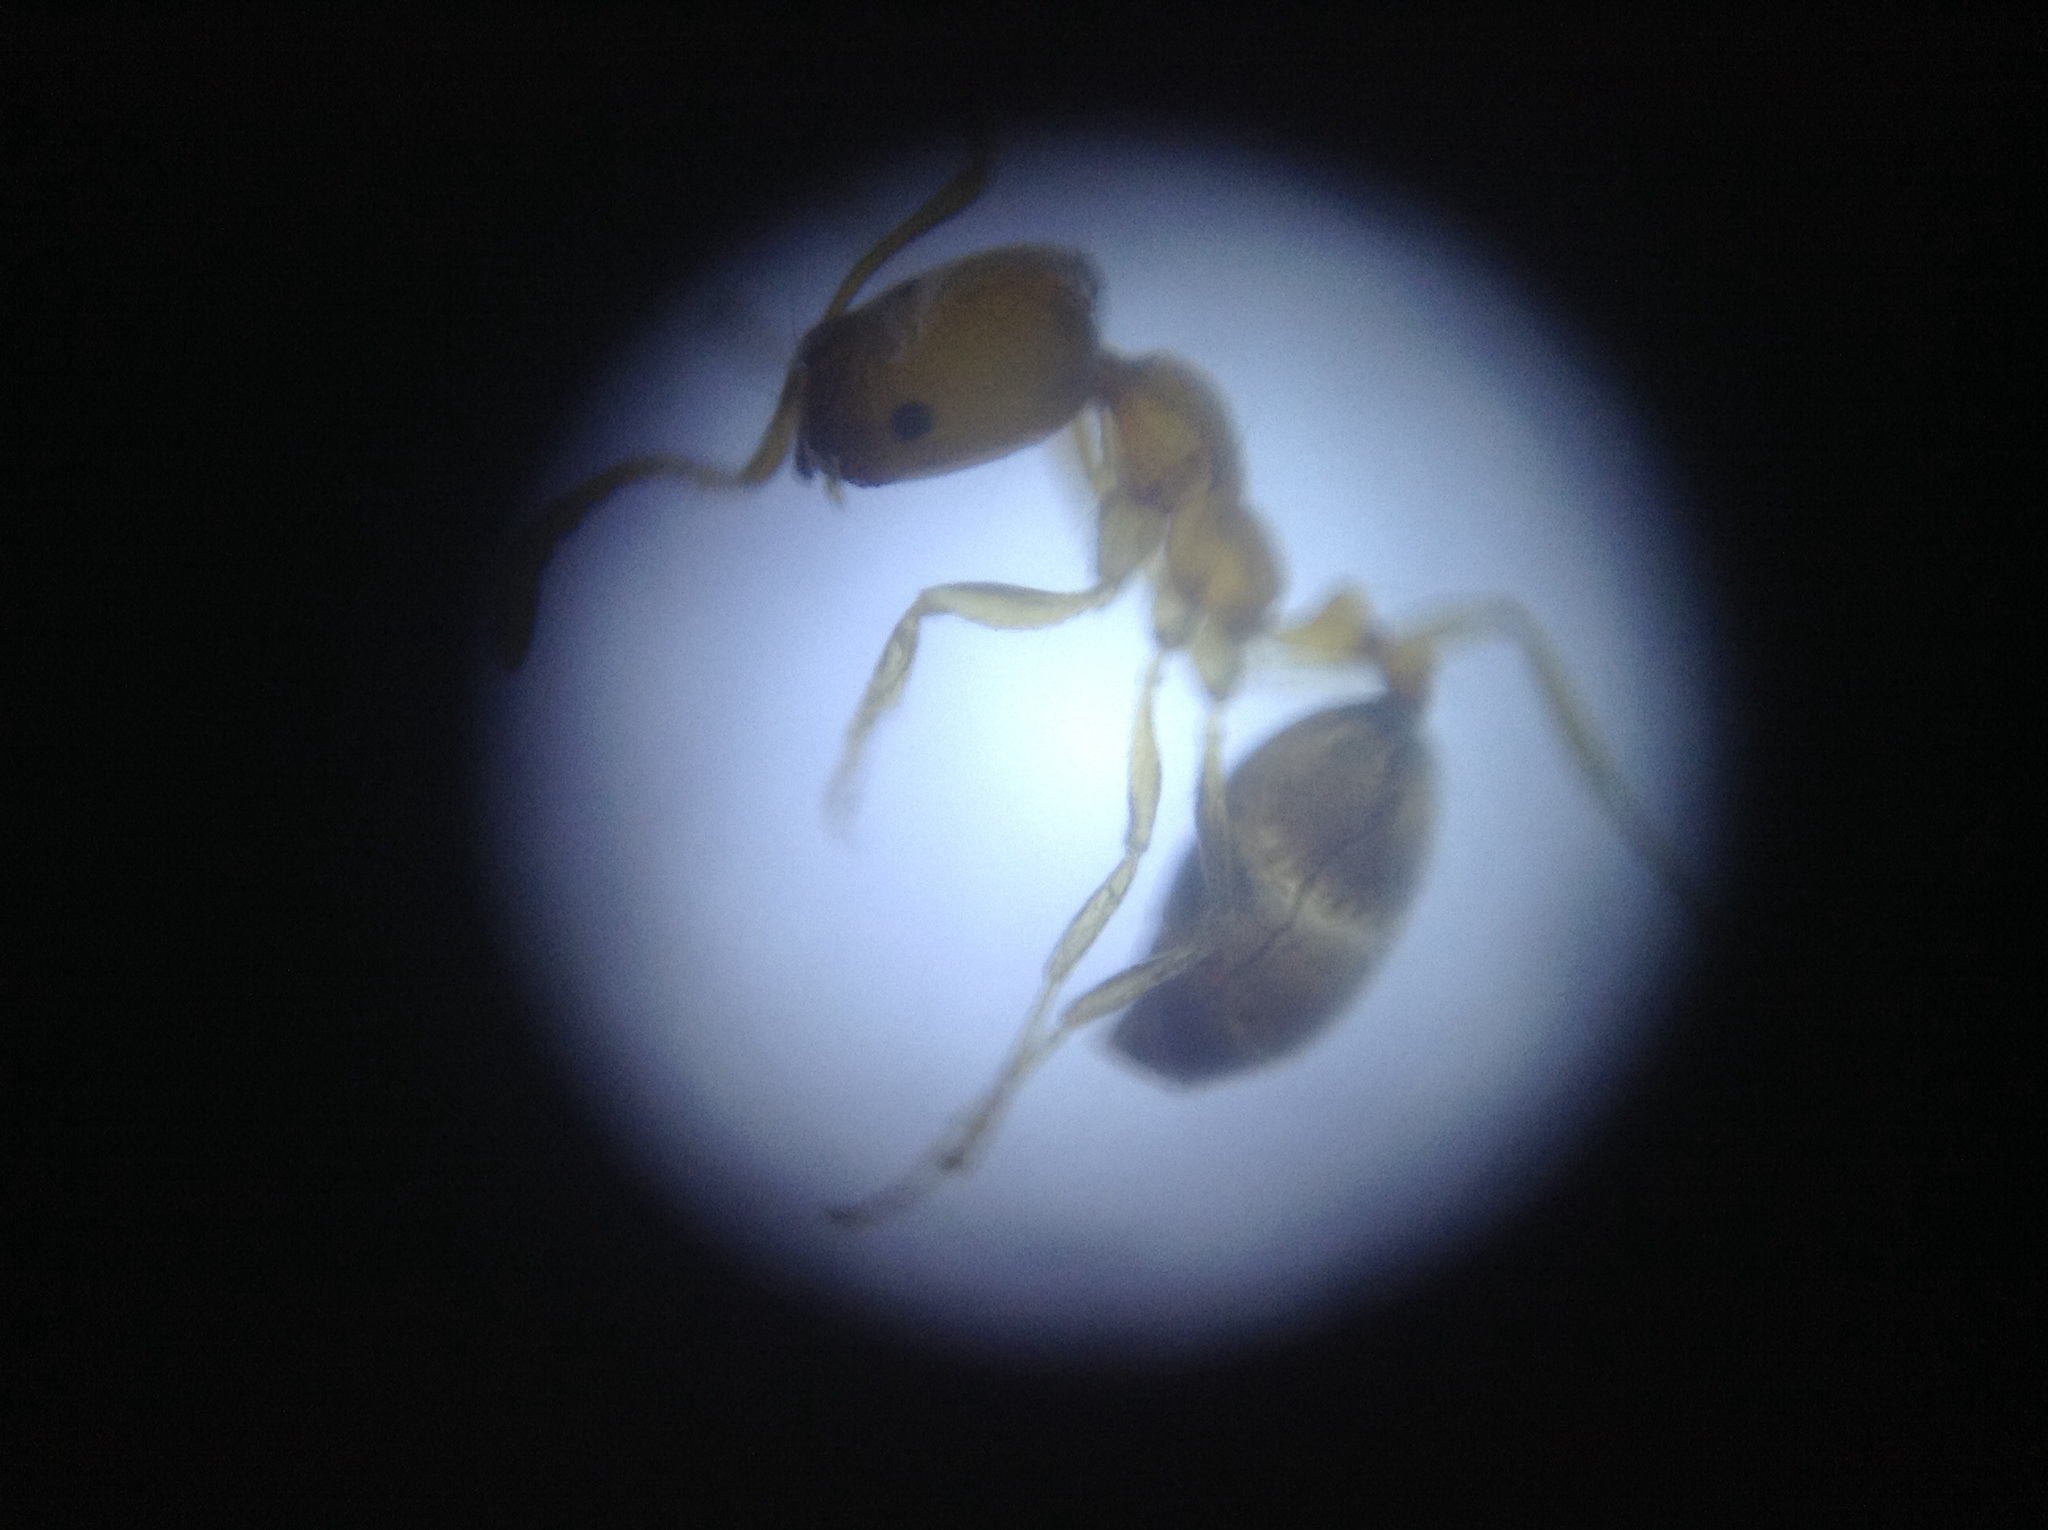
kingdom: Animalia
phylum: Arthropoda
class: Insecta
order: Hymenoptera
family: Formicidae
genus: Monomorium
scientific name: Monomorium destructor
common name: Destructive trailing ant
